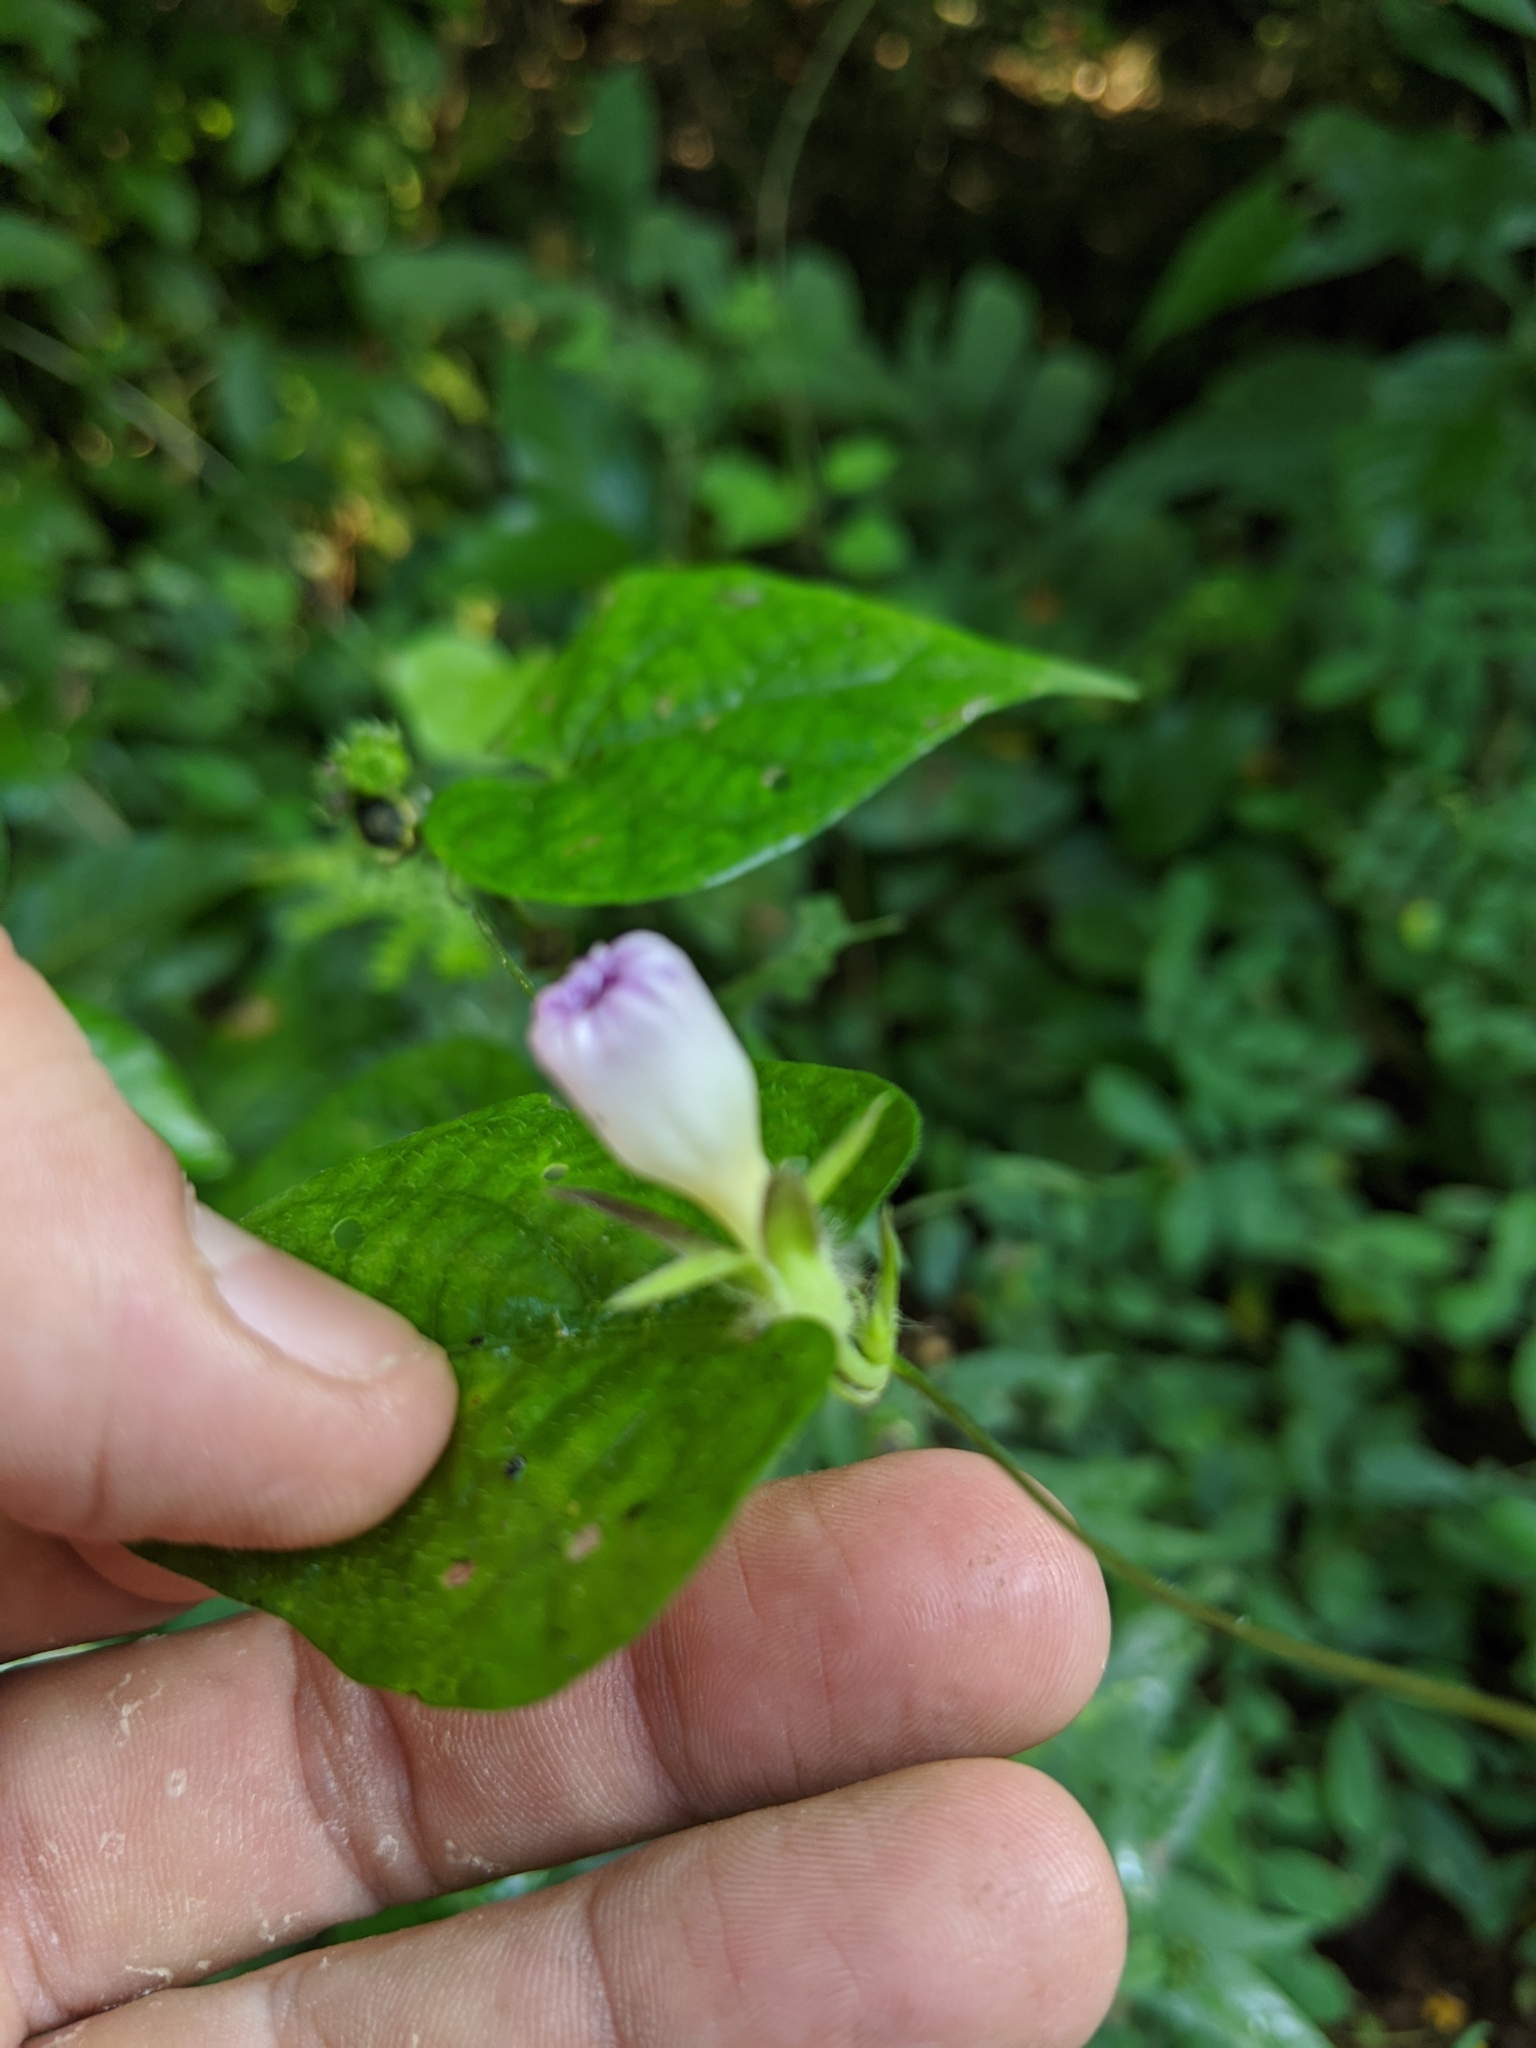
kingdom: Plantae
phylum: Tracheophyta
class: Magnoliopsida
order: Solanales
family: Convolvulaceae
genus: Ipomoea
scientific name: Ipomoea meyeri
